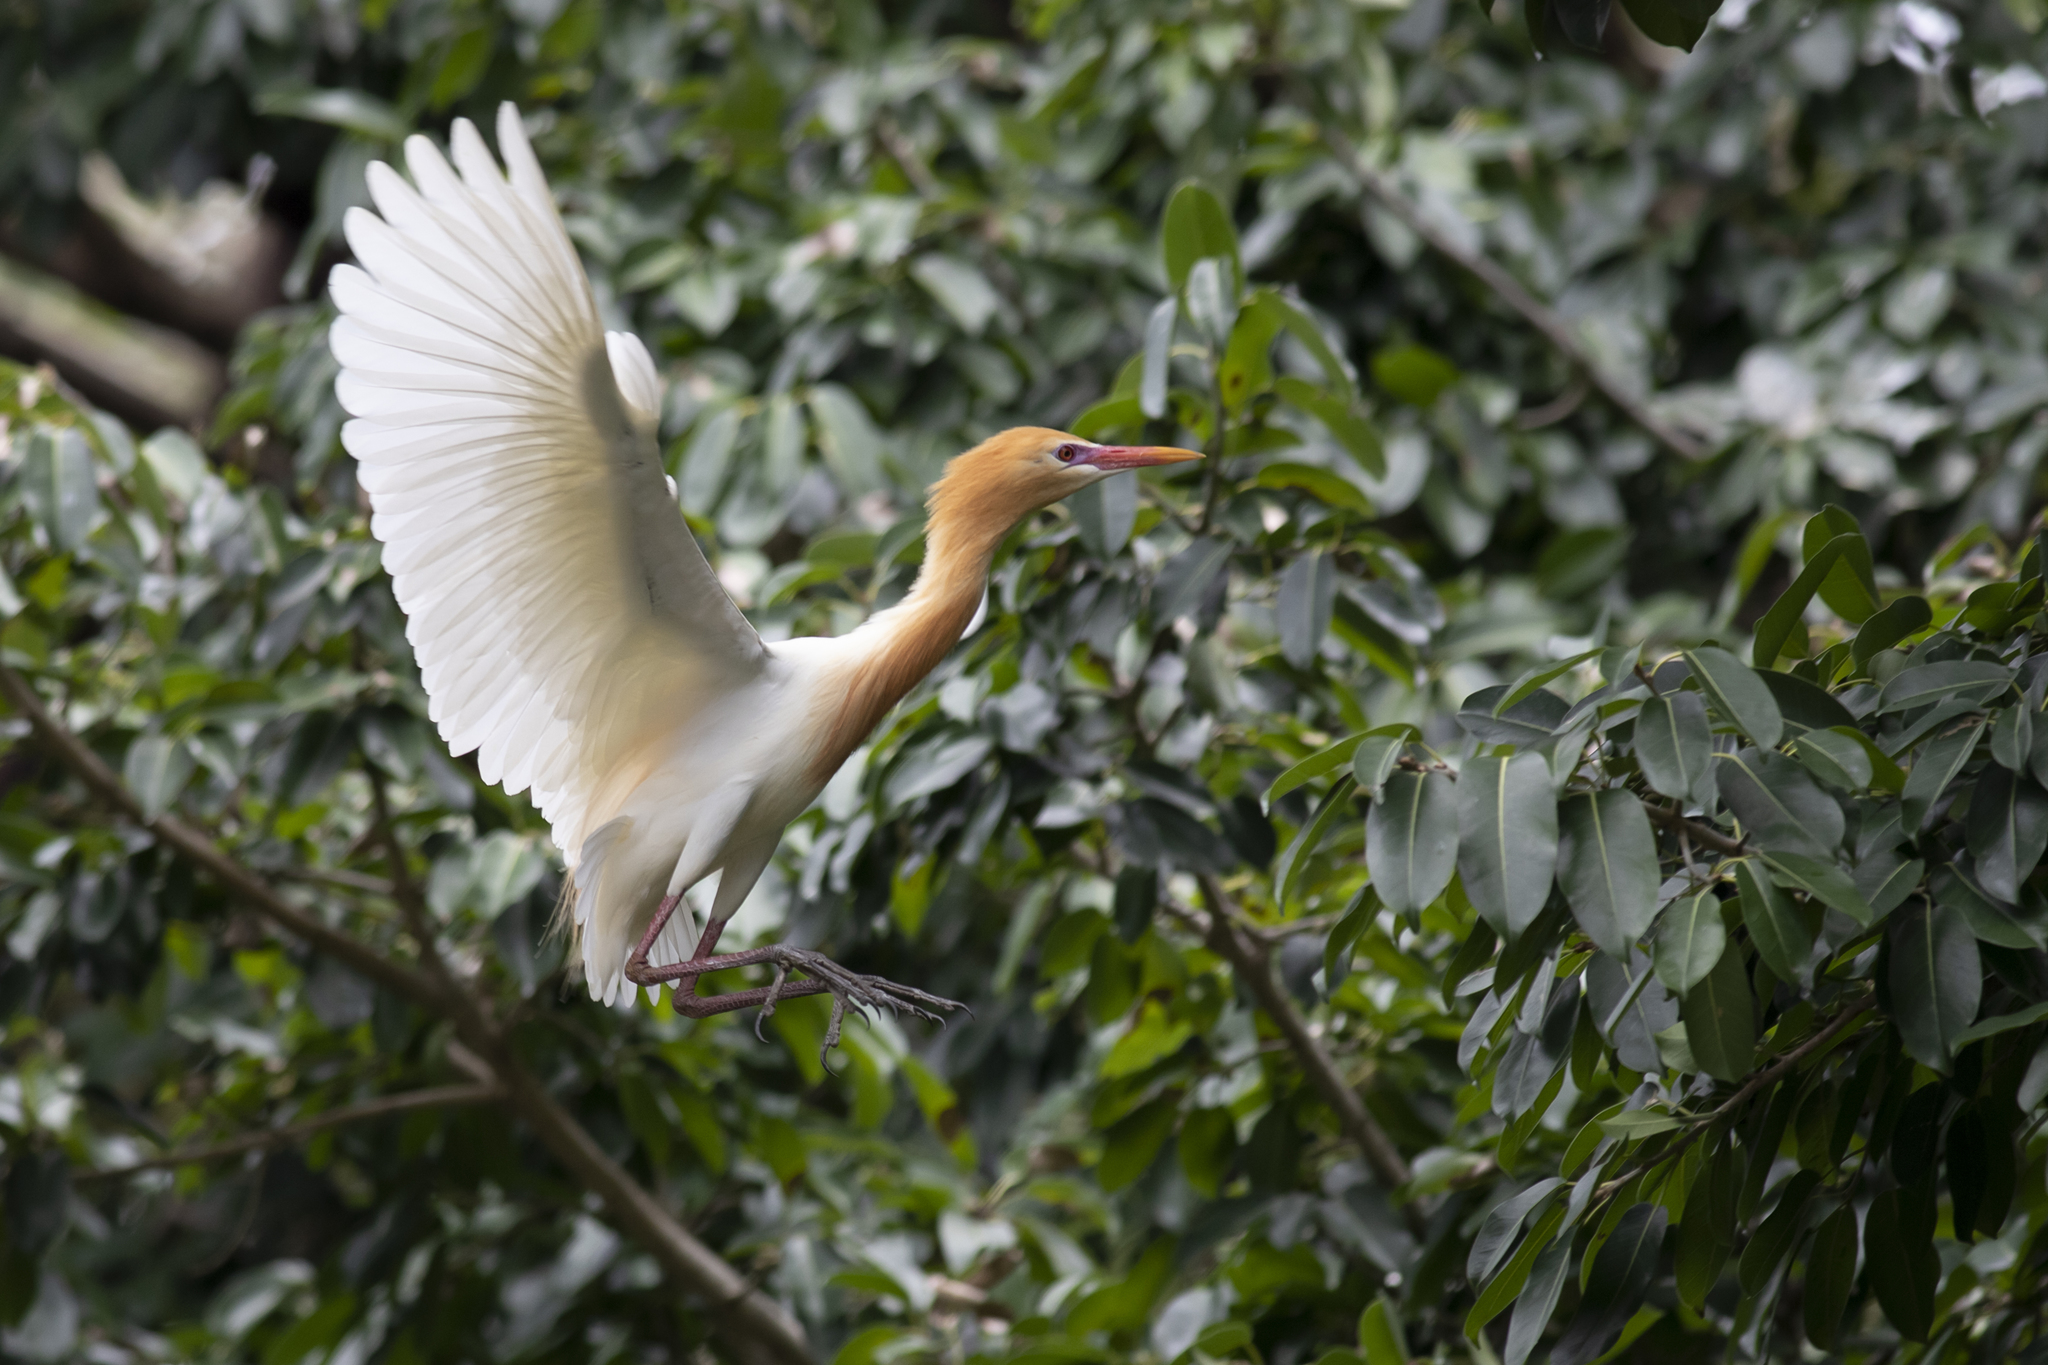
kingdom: Animalia
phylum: Chordata
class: Aves
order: Pelecaniformes
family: Ardeidae
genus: Bubulcus
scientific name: Bubulcus coromandus
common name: Eastern cattle egret
